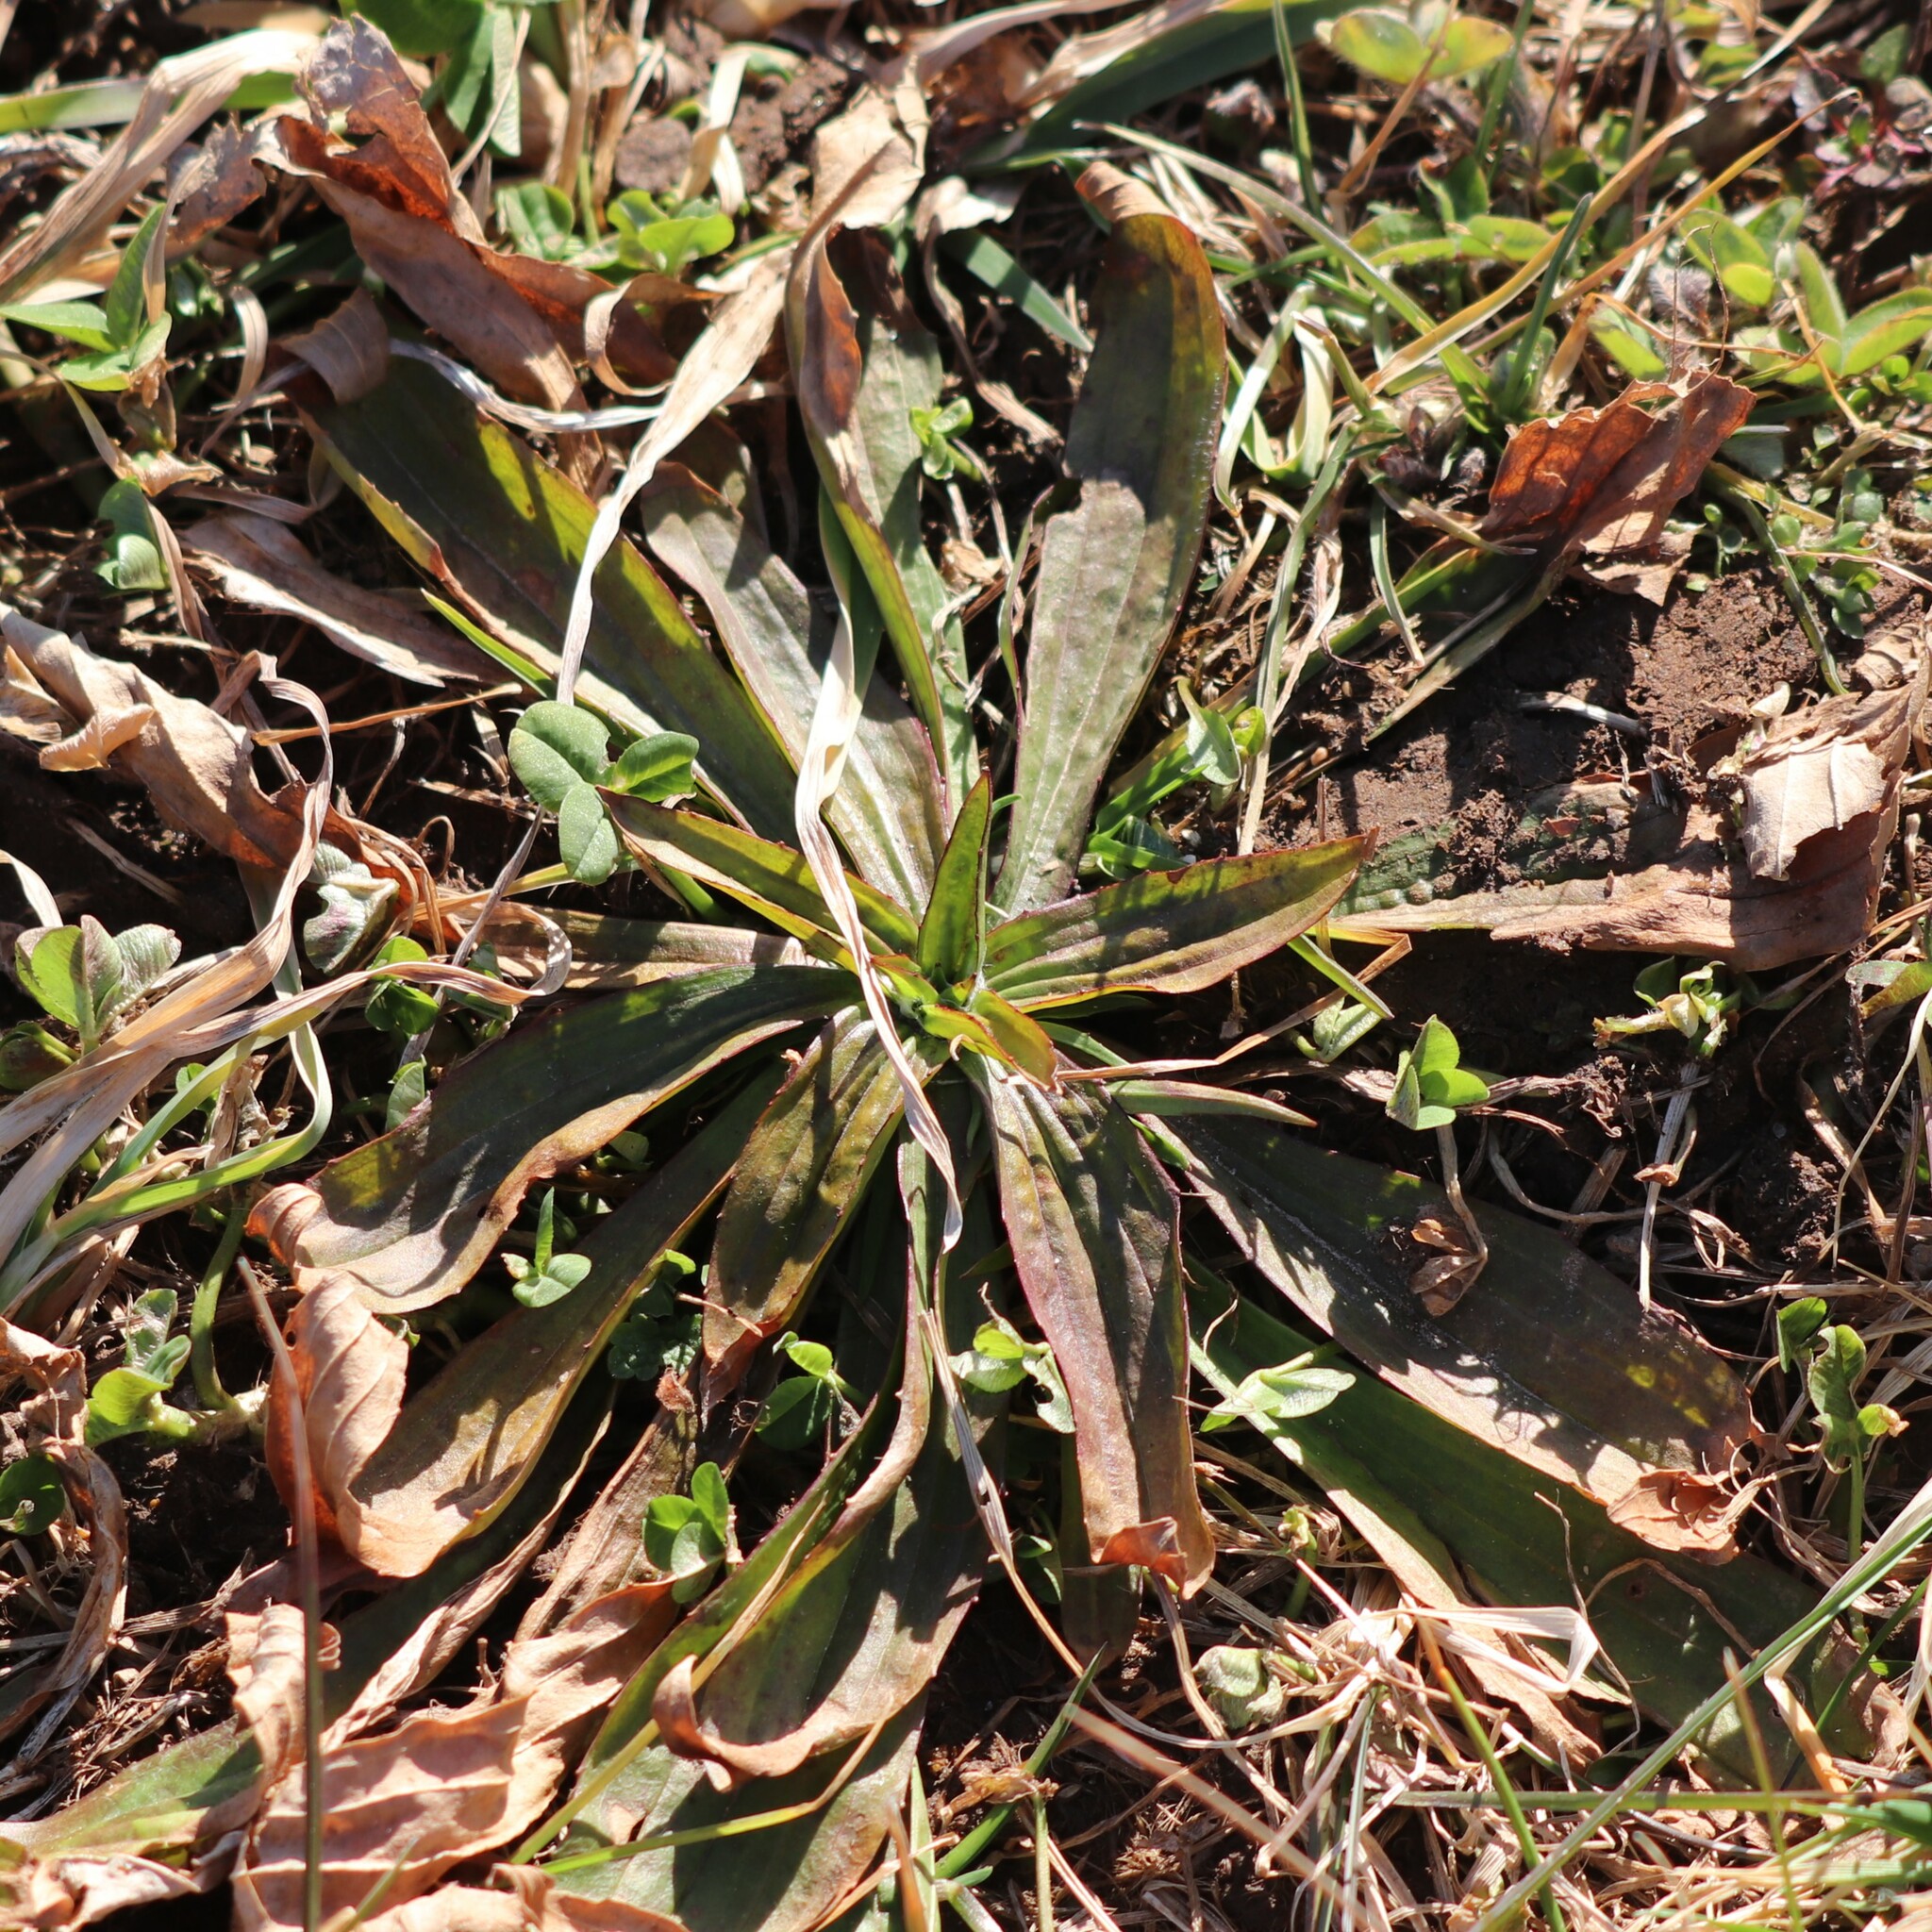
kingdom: Plantae
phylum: Tracheophyta
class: Magnoliopsida
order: Lamiales
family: Plantaginaceae
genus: Plantago
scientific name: Plantago lanceolata
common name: Ribwort plantain
